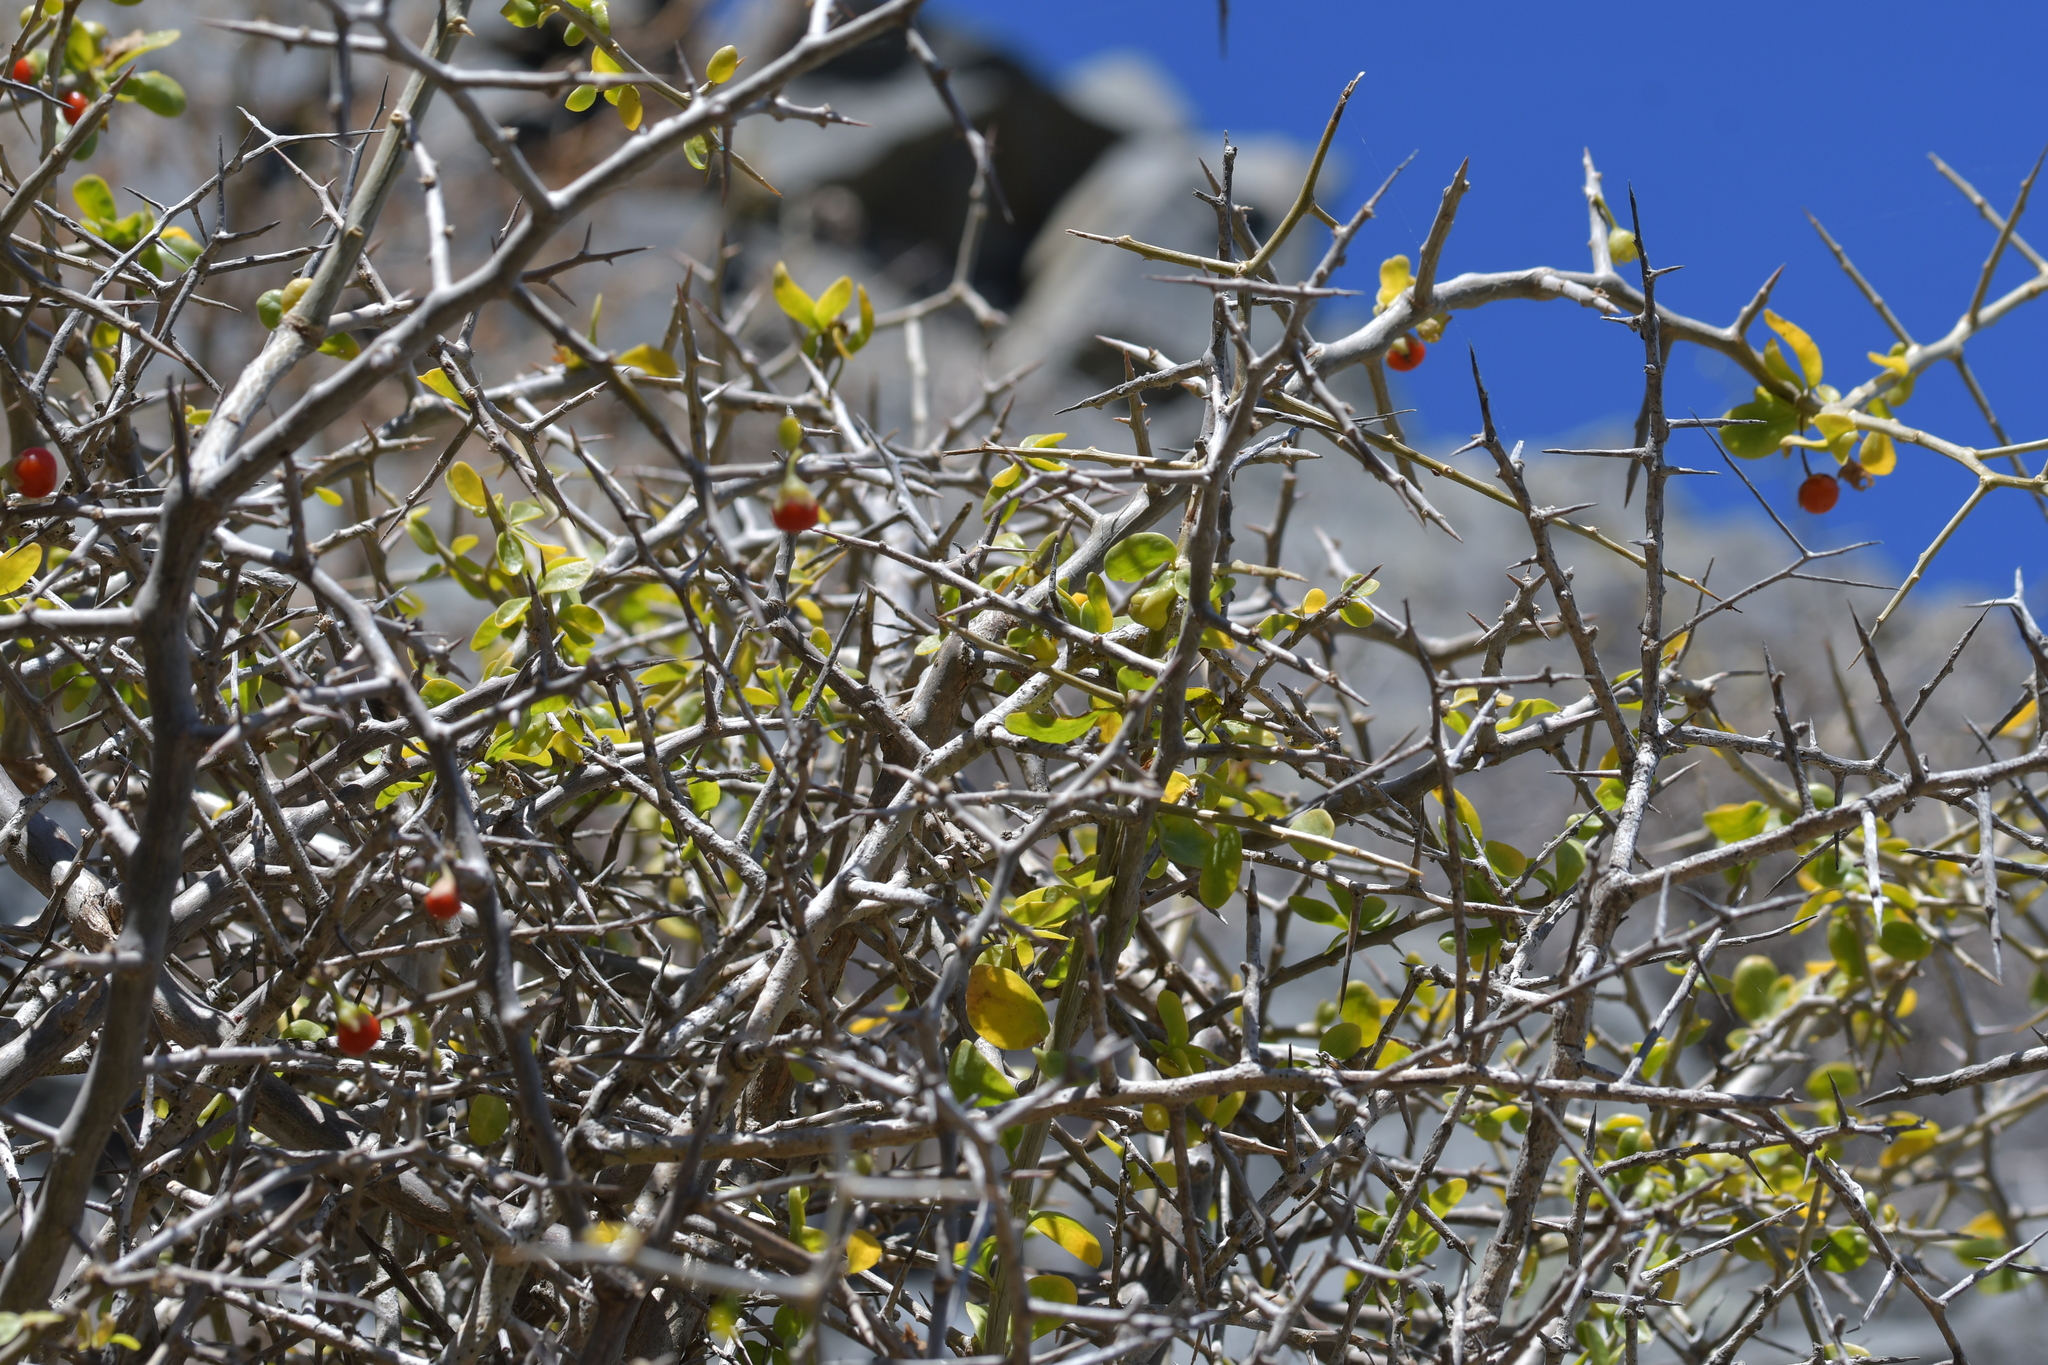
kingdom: Plantae
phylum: Tracheophyta
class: Magnoliopsida
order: Solanales
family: Solanaceae
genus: Lycium
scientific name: Lycium ferocissimum
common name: African boxthorn
